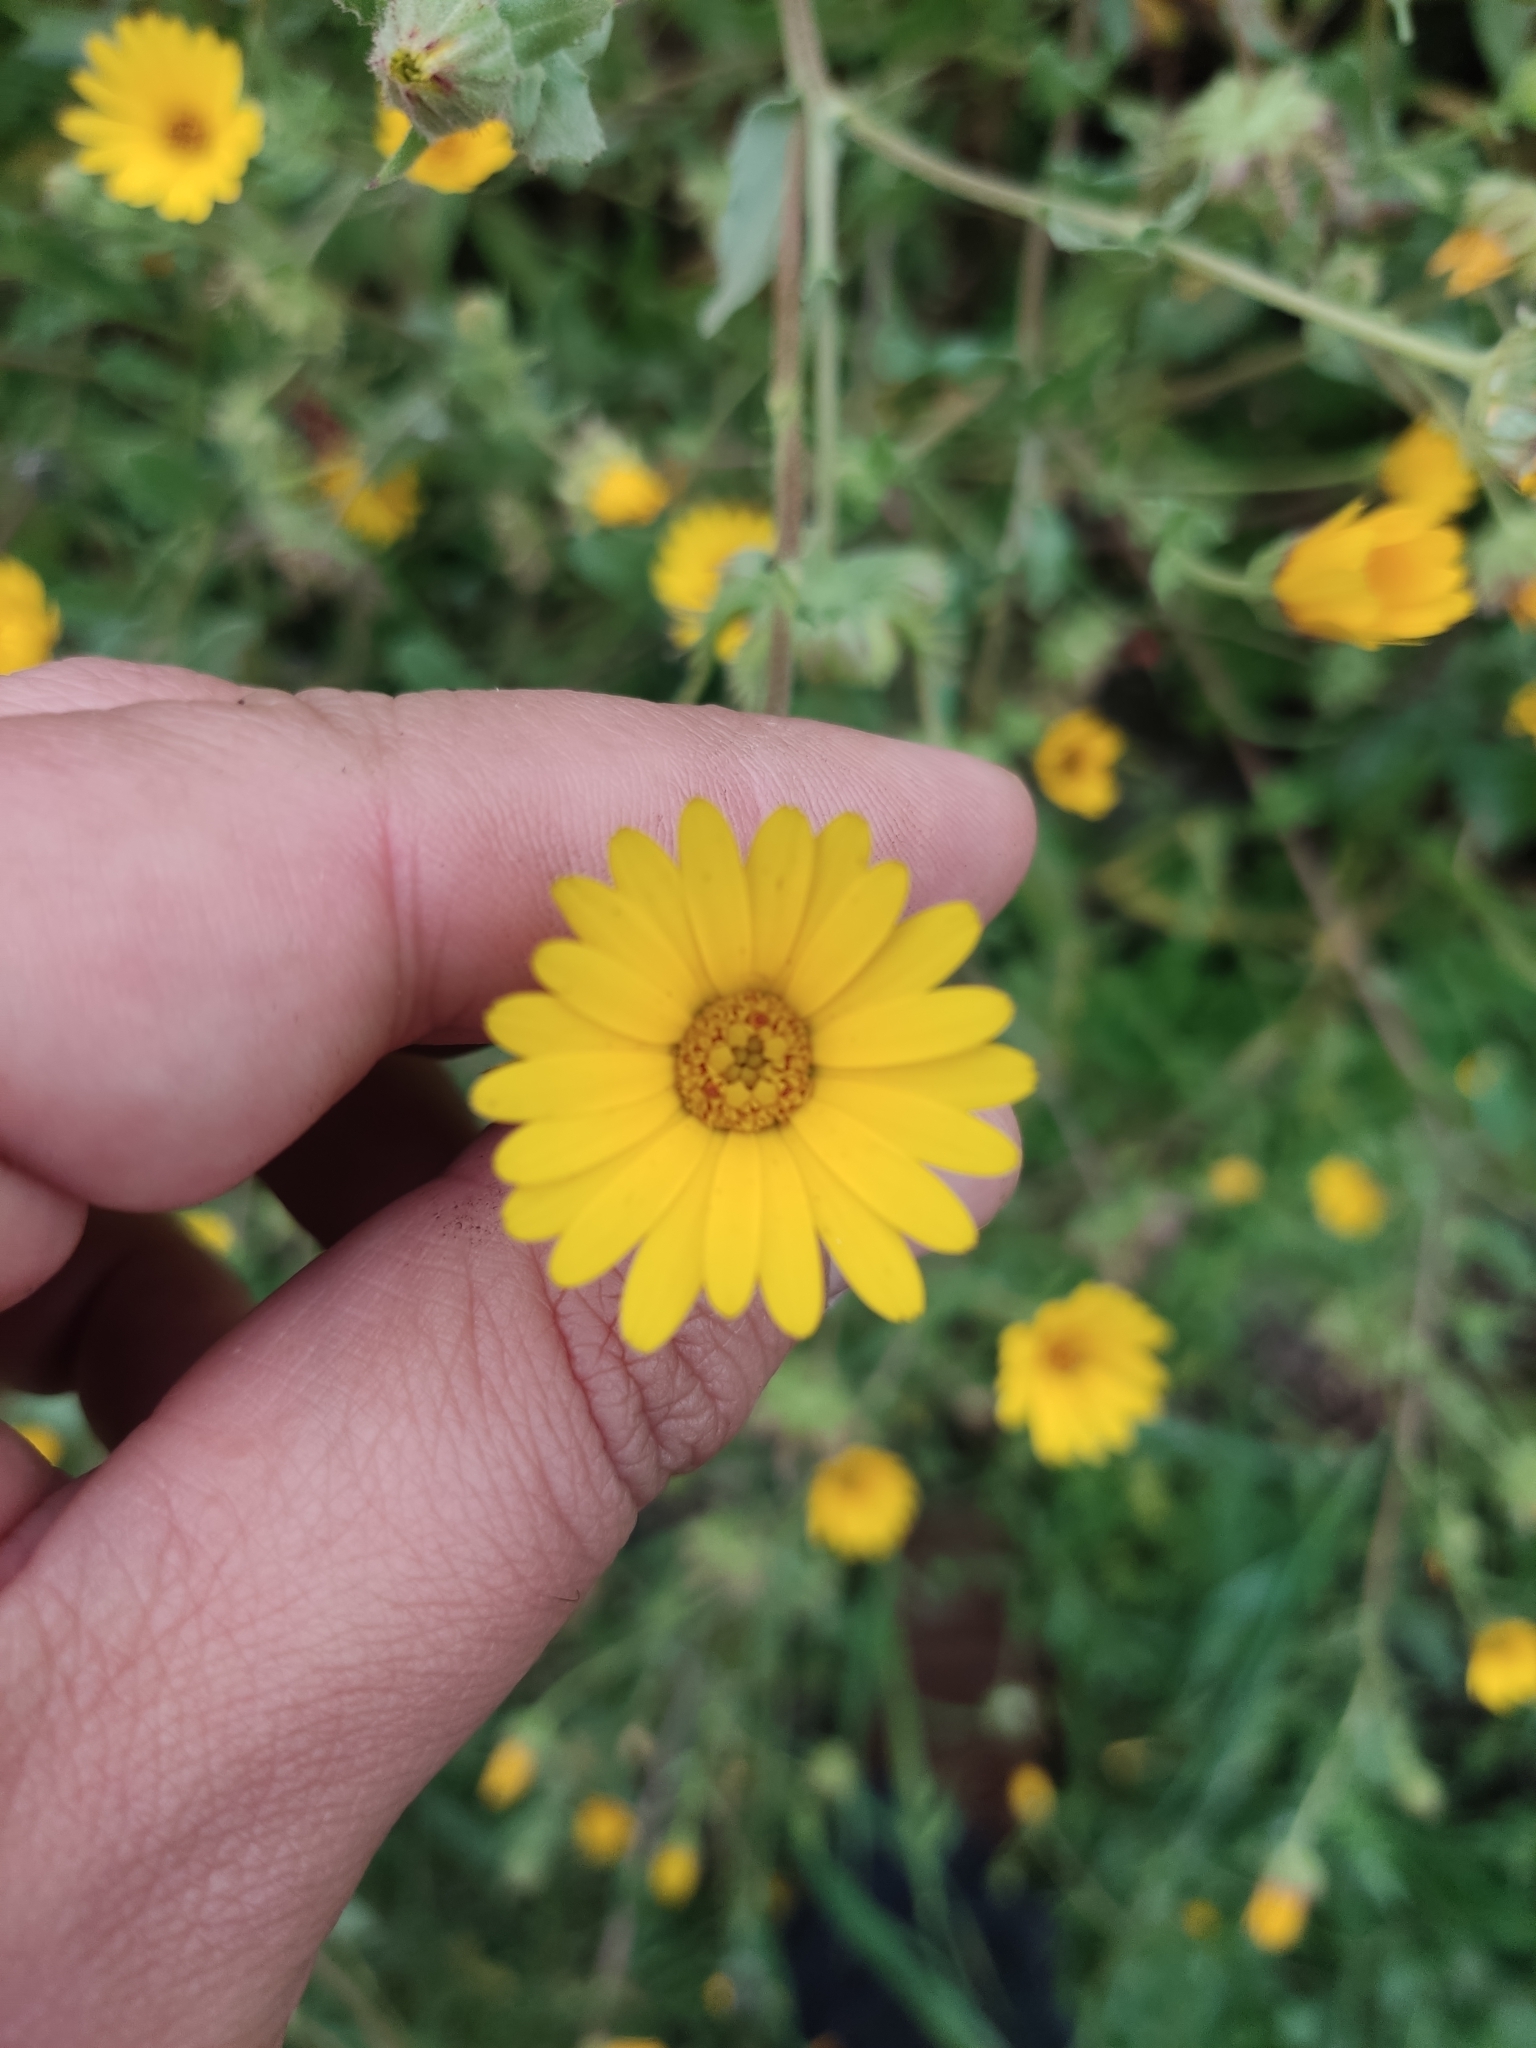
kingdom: Plantae
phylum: Tracheophyta
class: Magnoliopsida
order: Asterales
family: Asteraceae
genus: Calendula
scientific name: Calendula arvensis
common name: Field marigold
